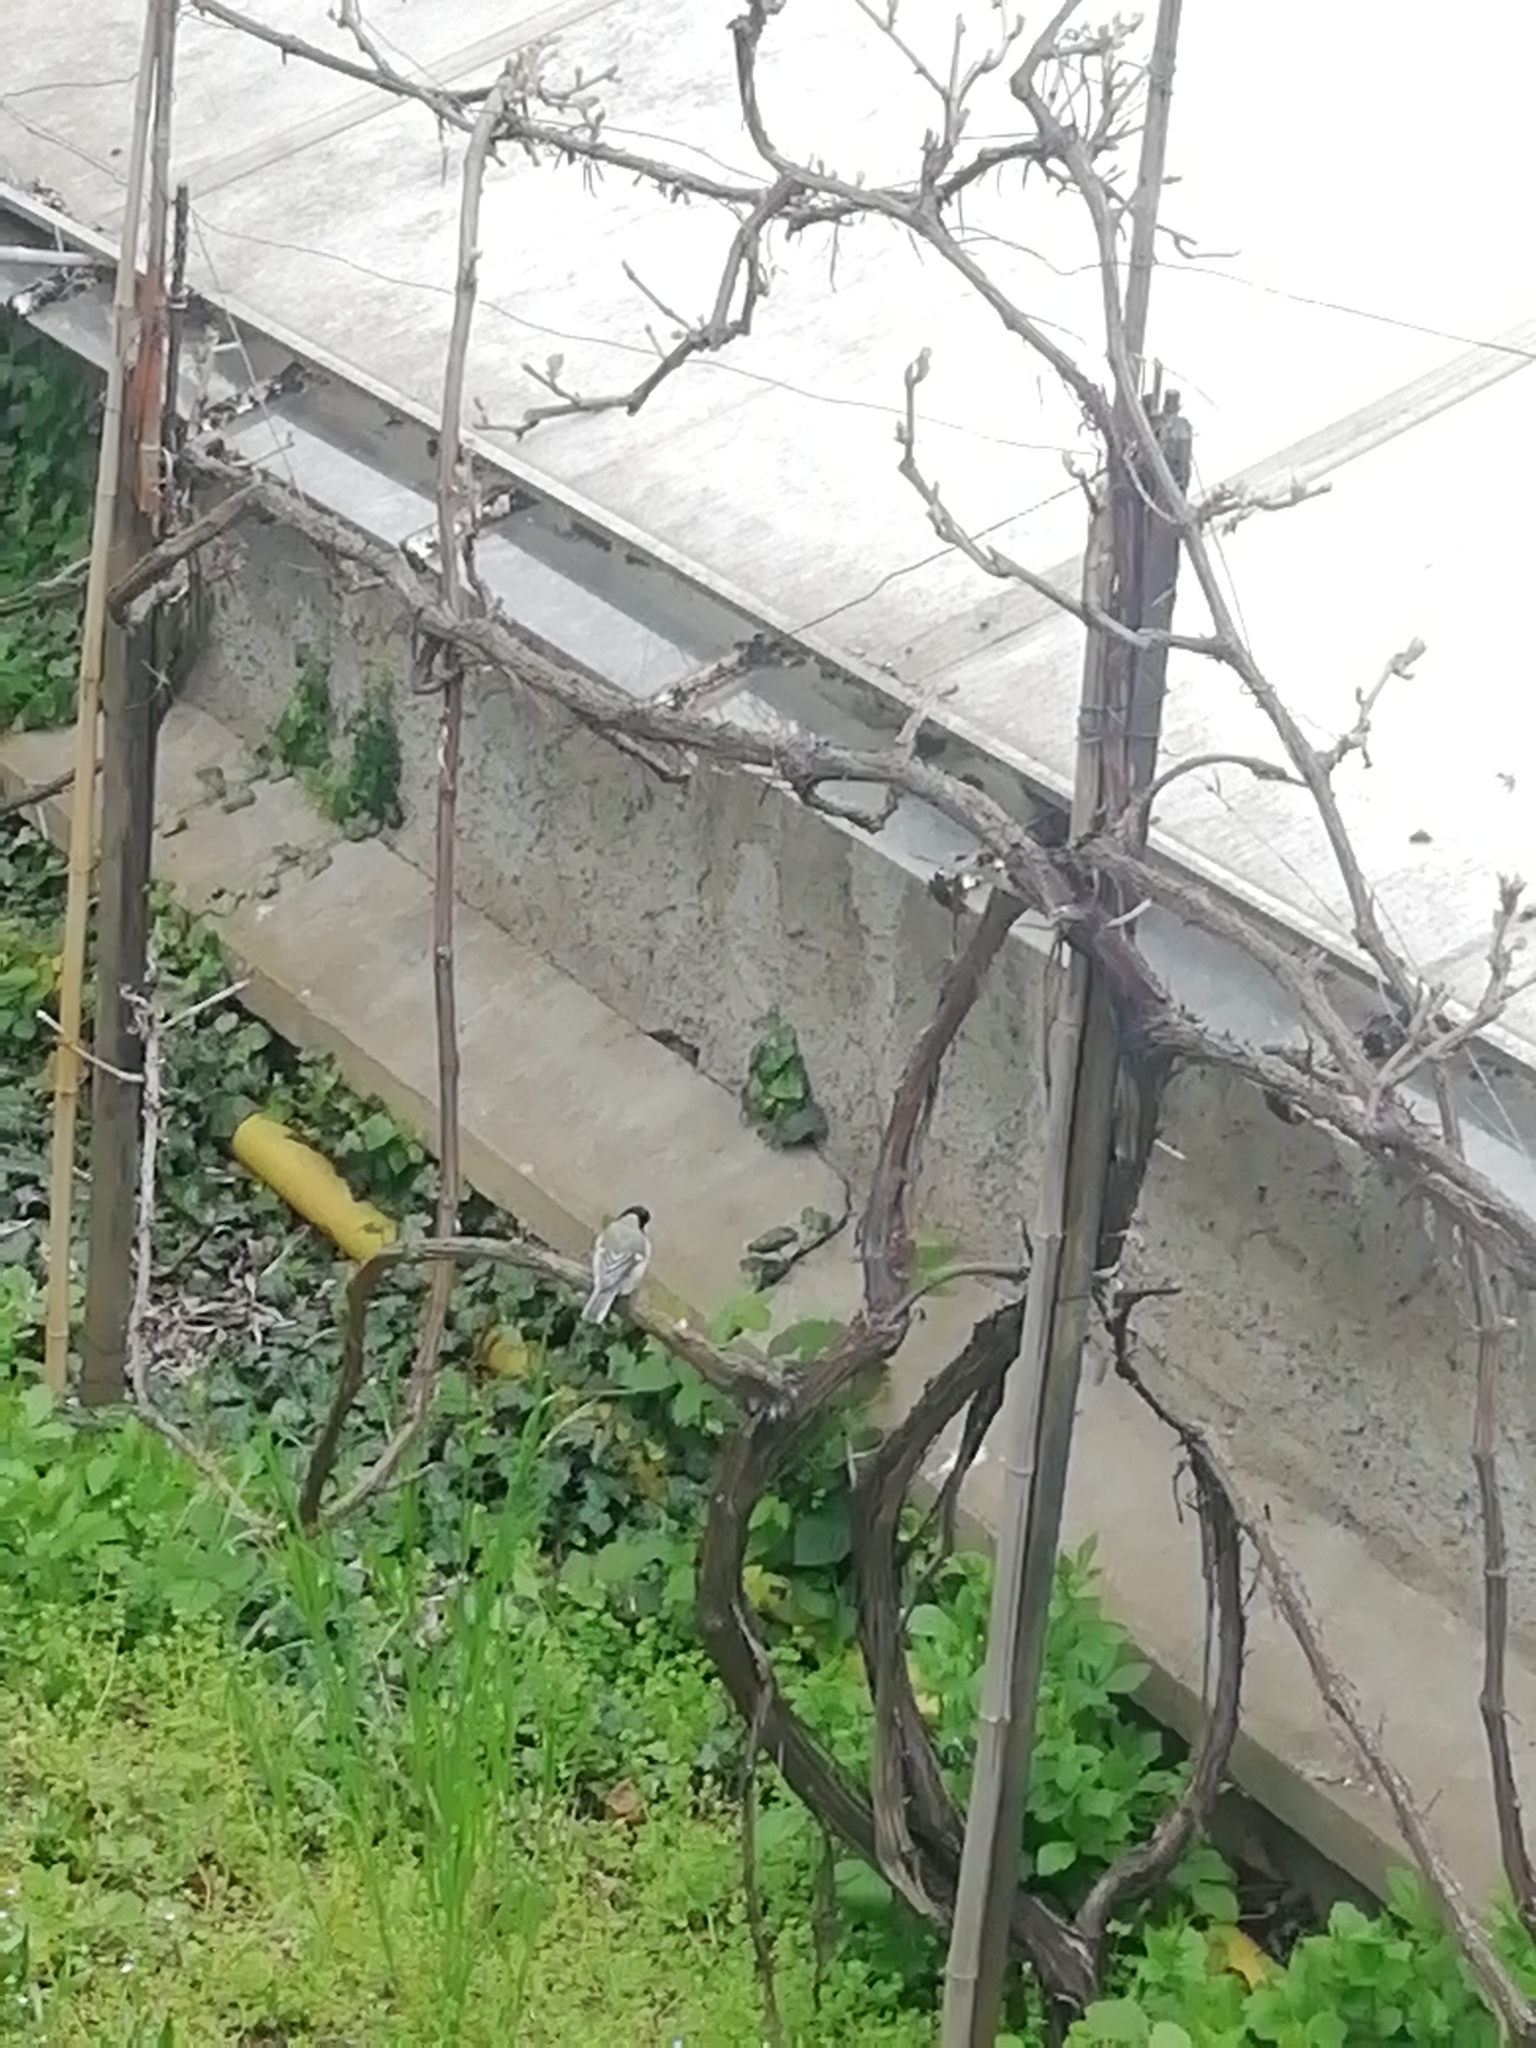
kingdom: Animalia
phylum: Chordata
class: Aves
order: Passeriformes
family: Paridae
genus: Parus
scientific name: Parus major
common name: Great tit
